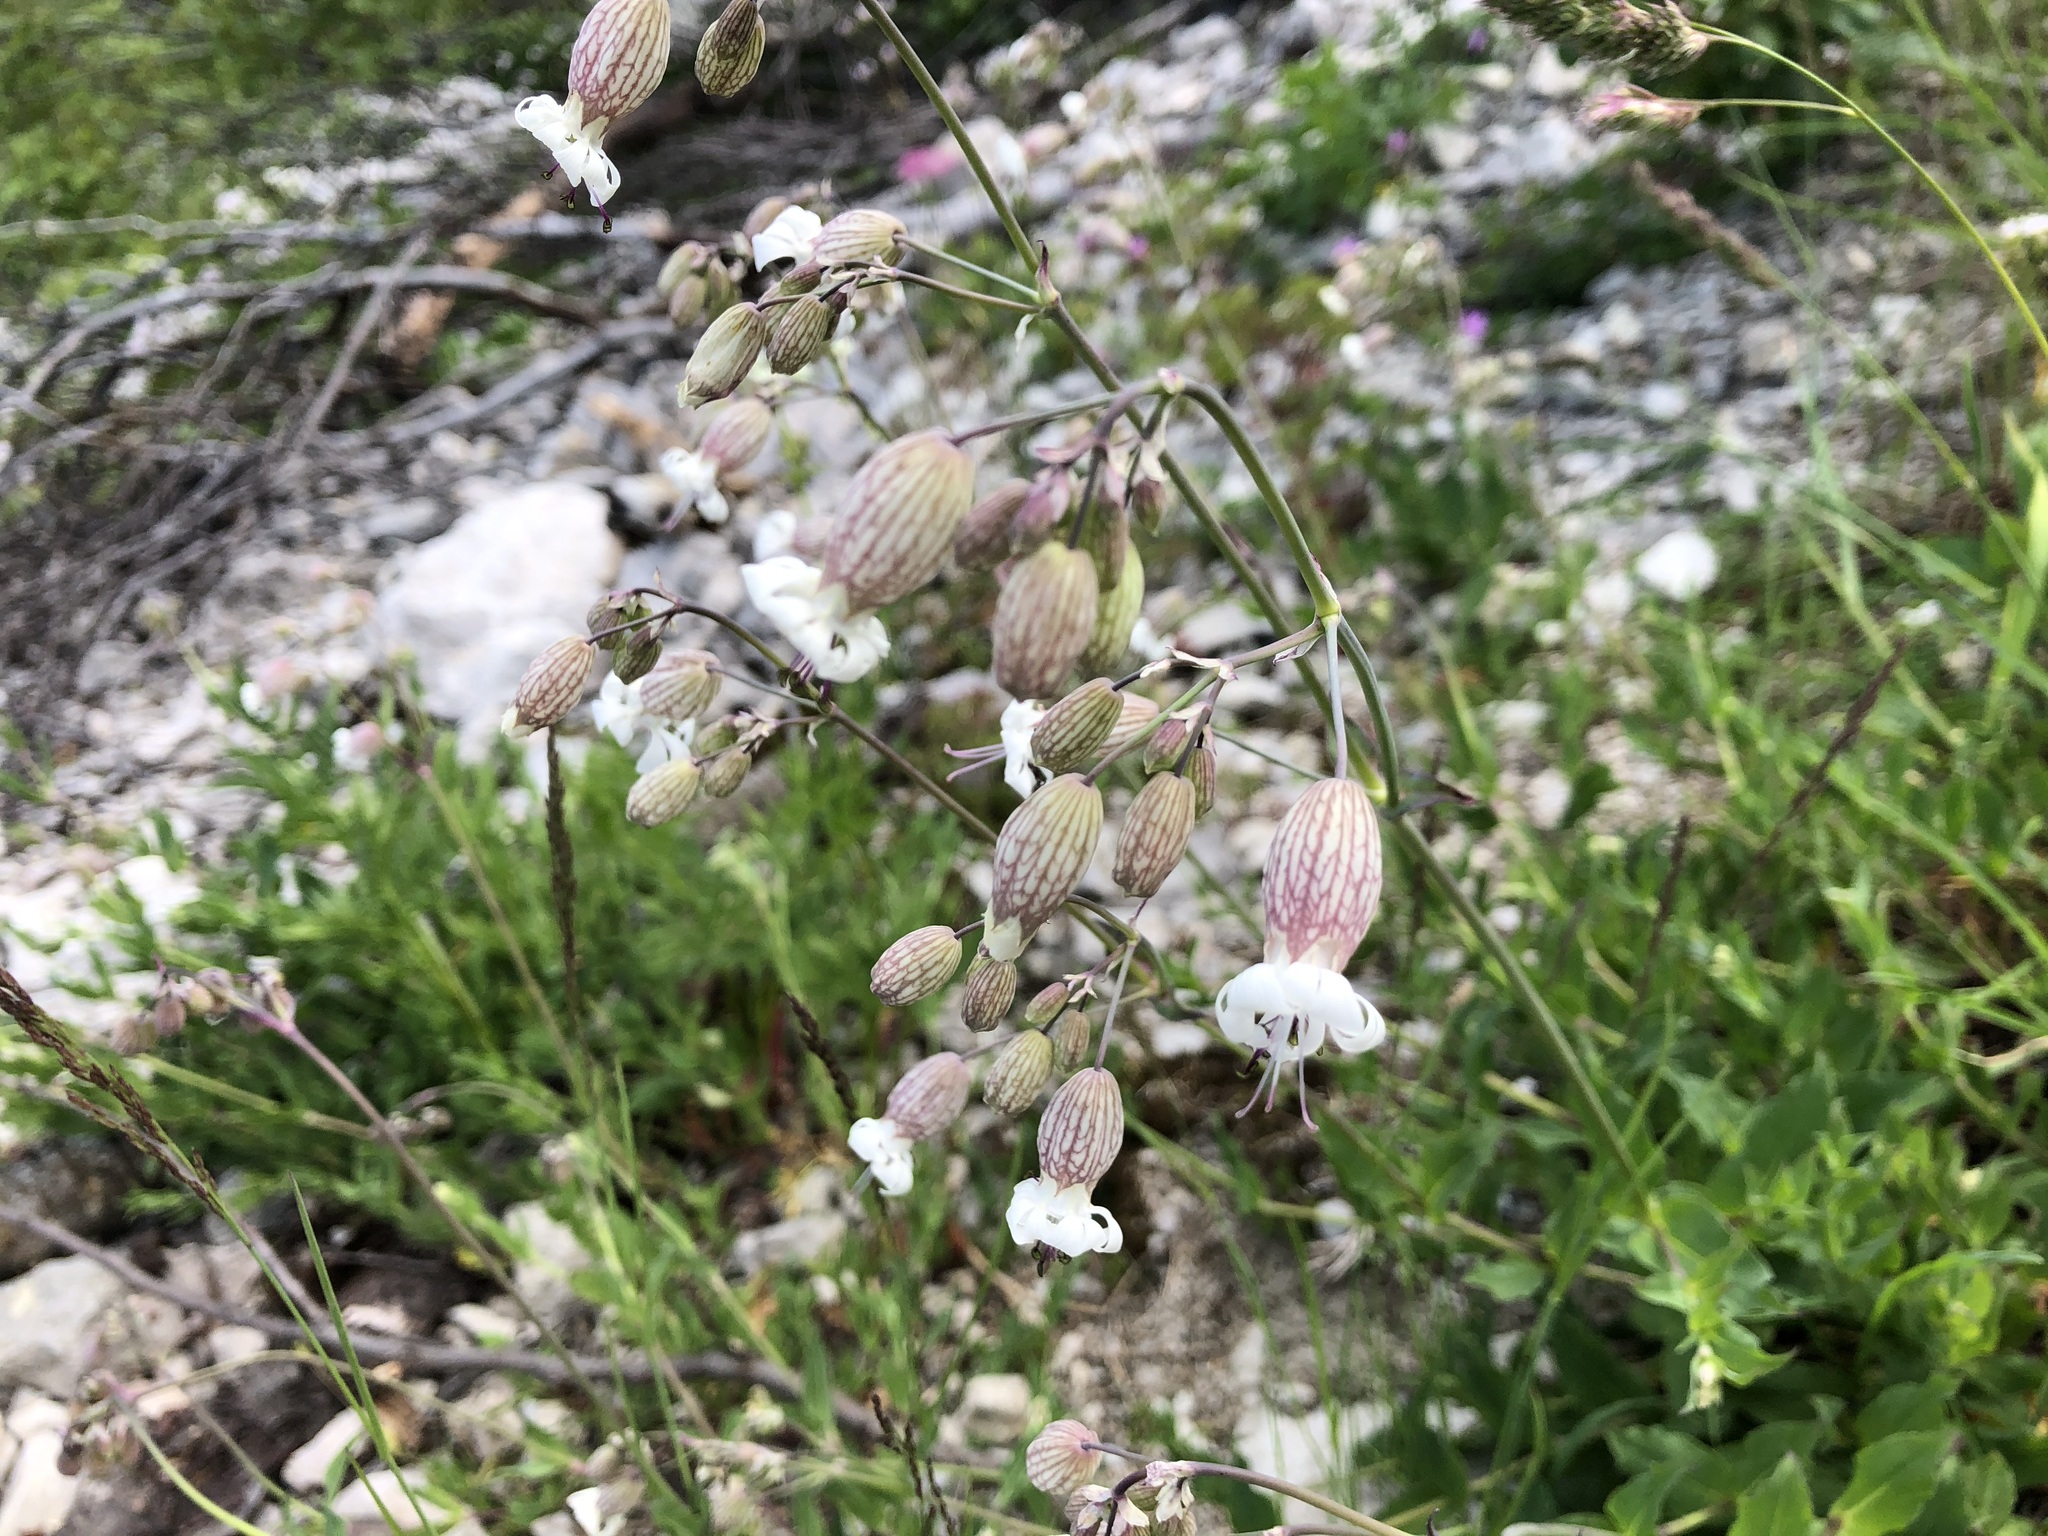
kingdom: Plantae
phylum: Tracheophyta
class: Magnoliopsida
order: Caryophyllales
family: Caryophyllaceae
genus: Silene
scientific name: Silene vulgaris
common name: Bladder campion
